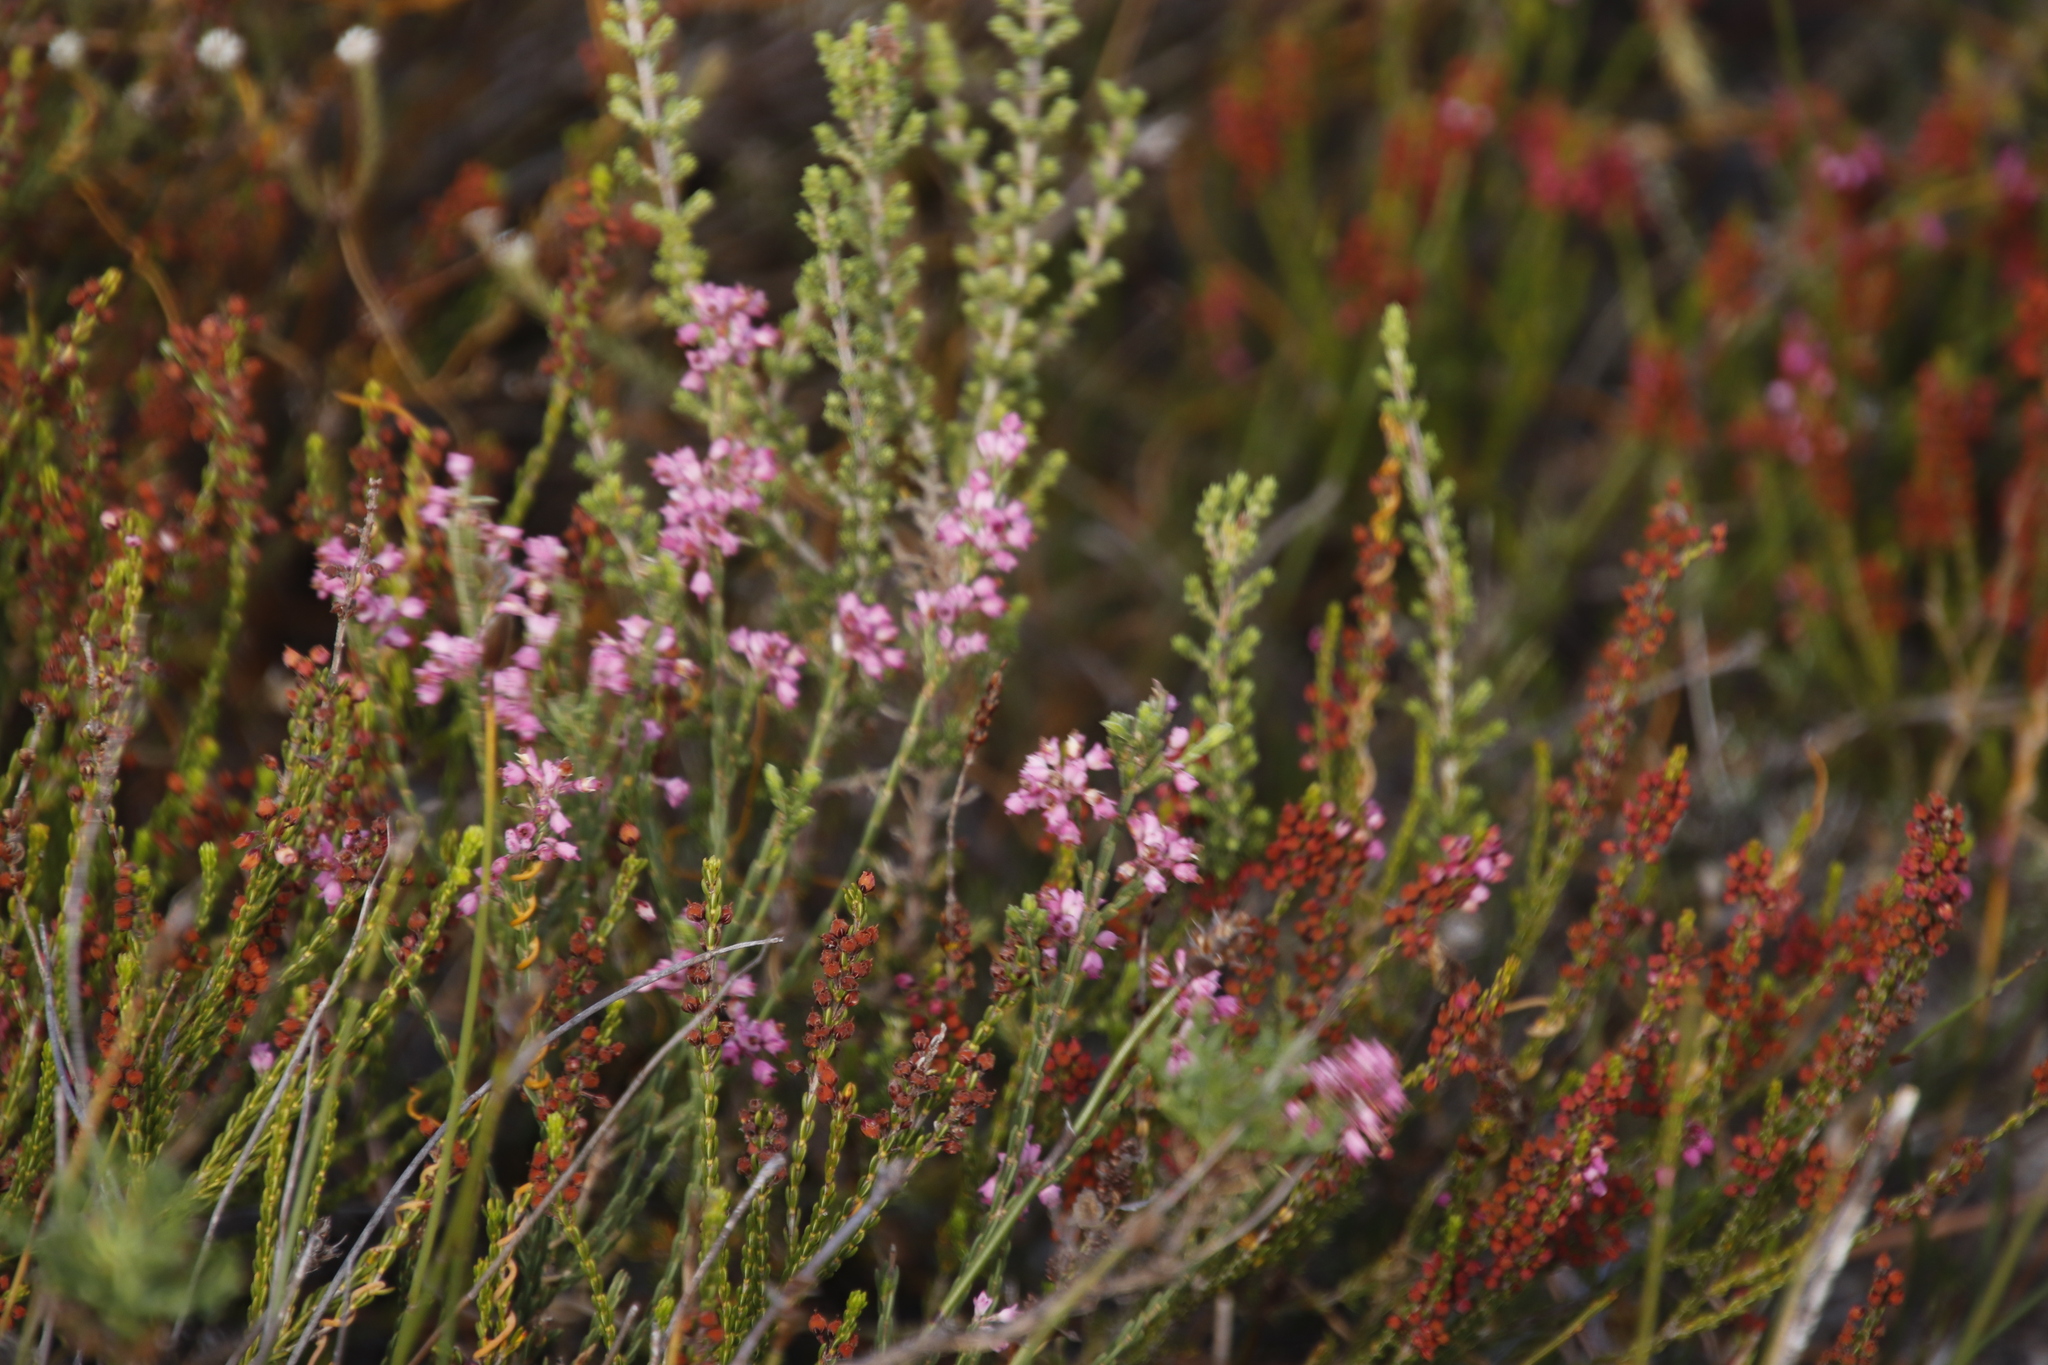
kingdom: Plantae
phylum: Tracheophyta
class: Magnoliopsida
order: Ericales
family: Ericaceae
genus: Erica
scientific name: Erica corifolia
